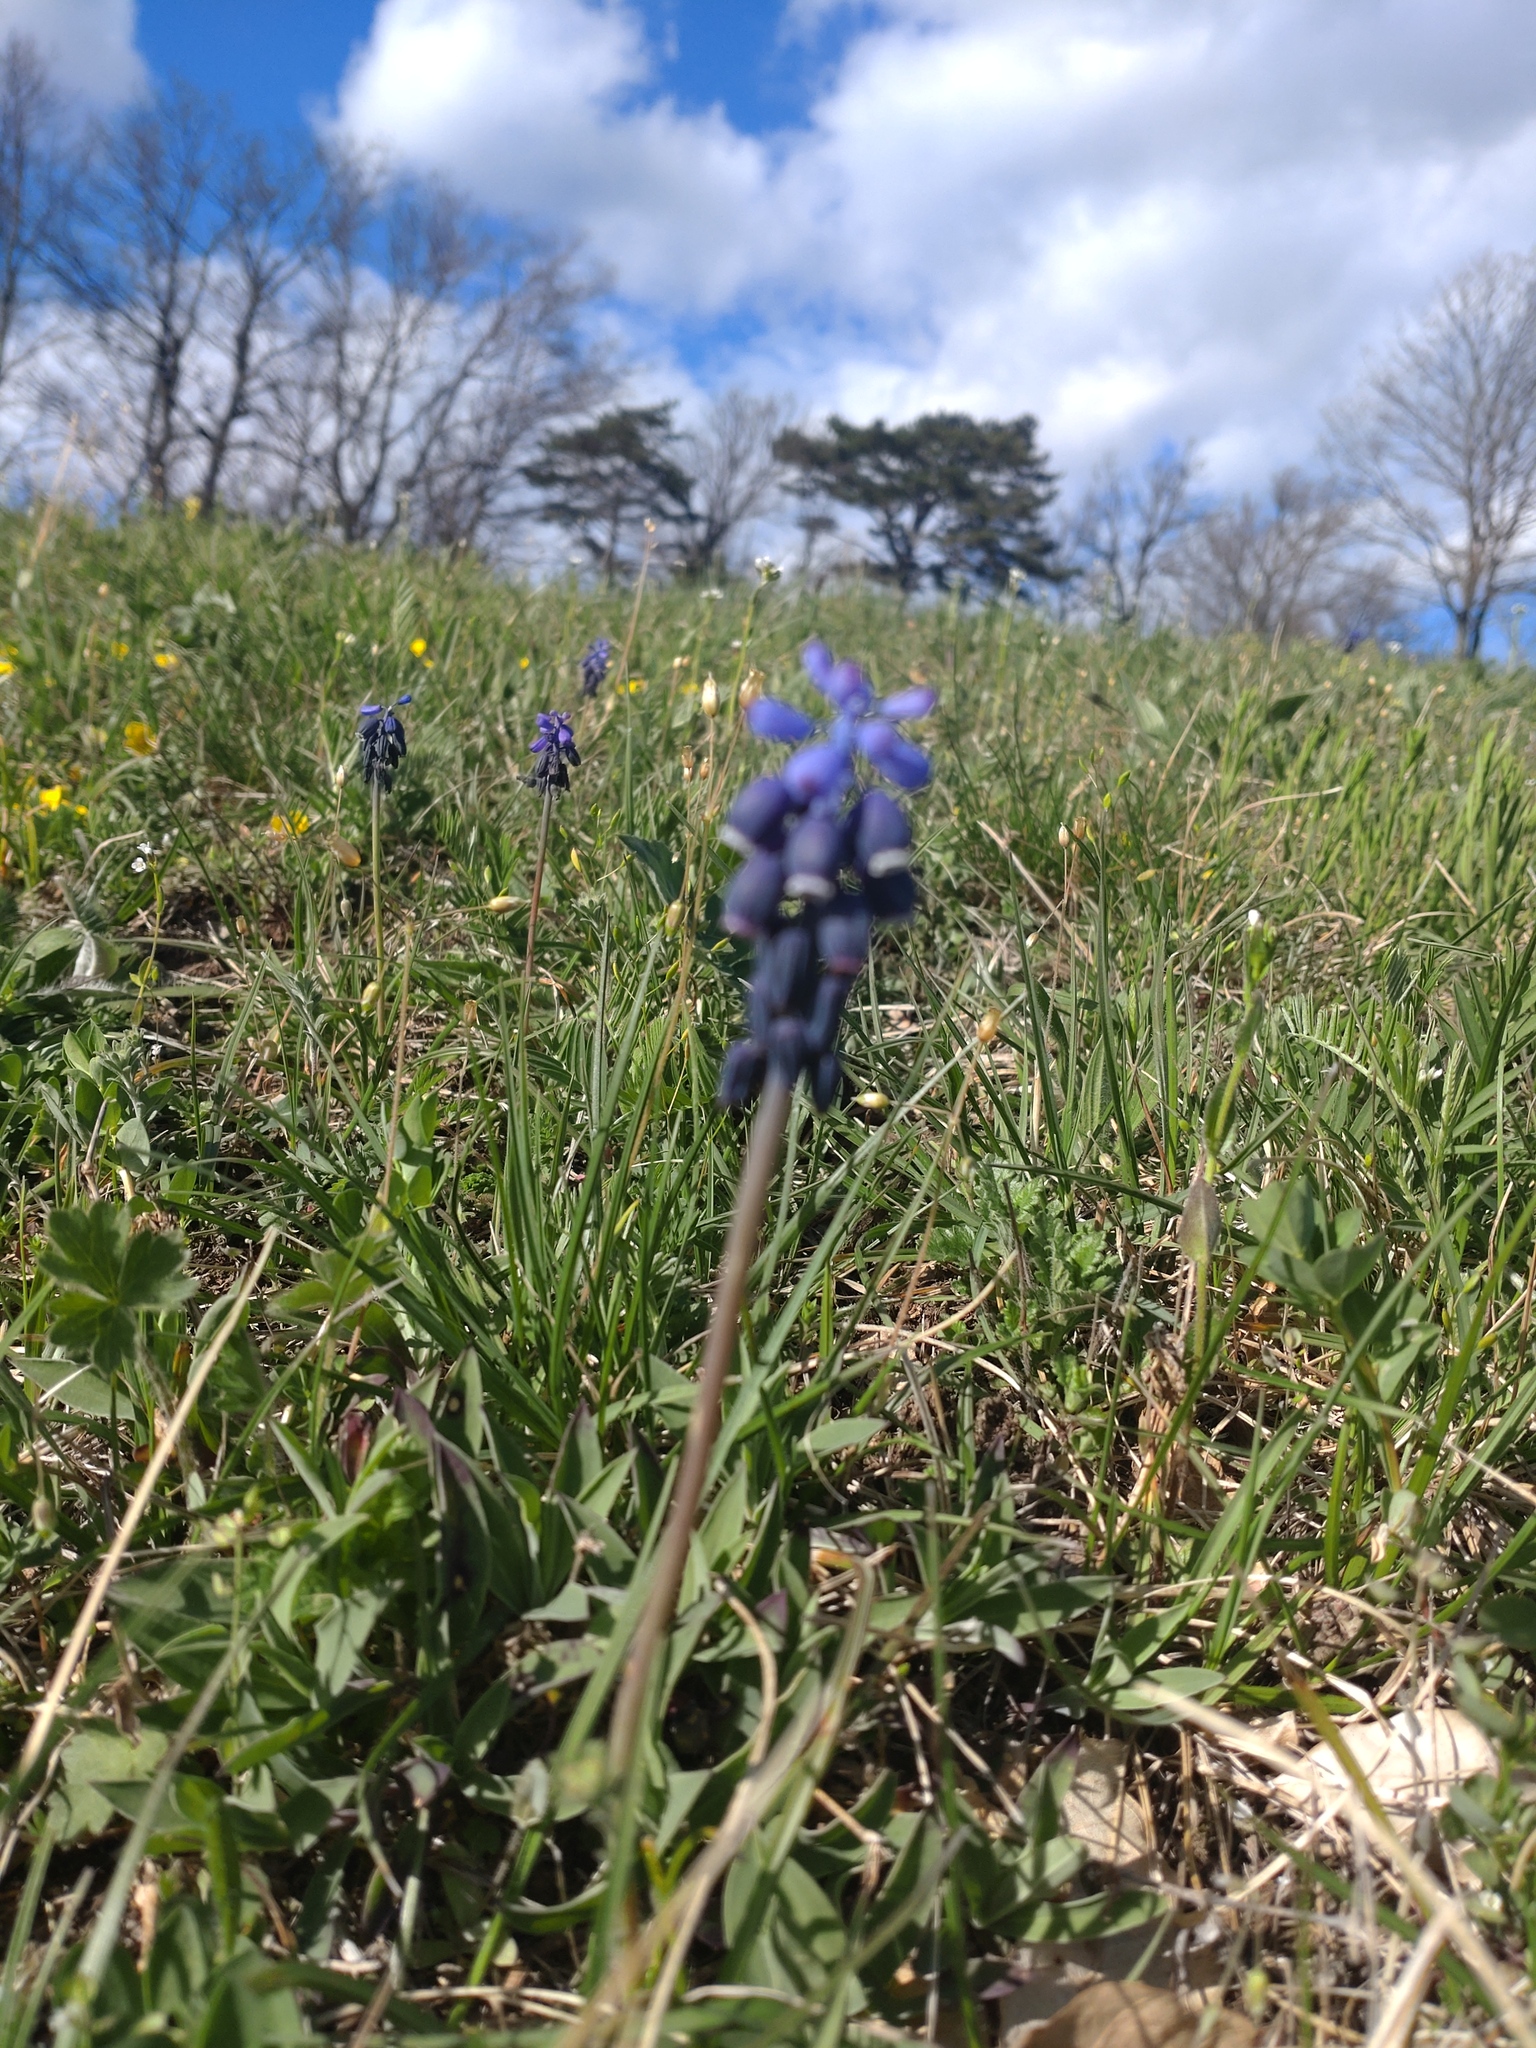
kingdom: Plantae
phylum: Tracheophyta
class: Liliopsida
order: Asparagales
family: Asparagaceae
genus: Muscari
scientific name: Muscari neglectum
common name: Grape-hyacinth
